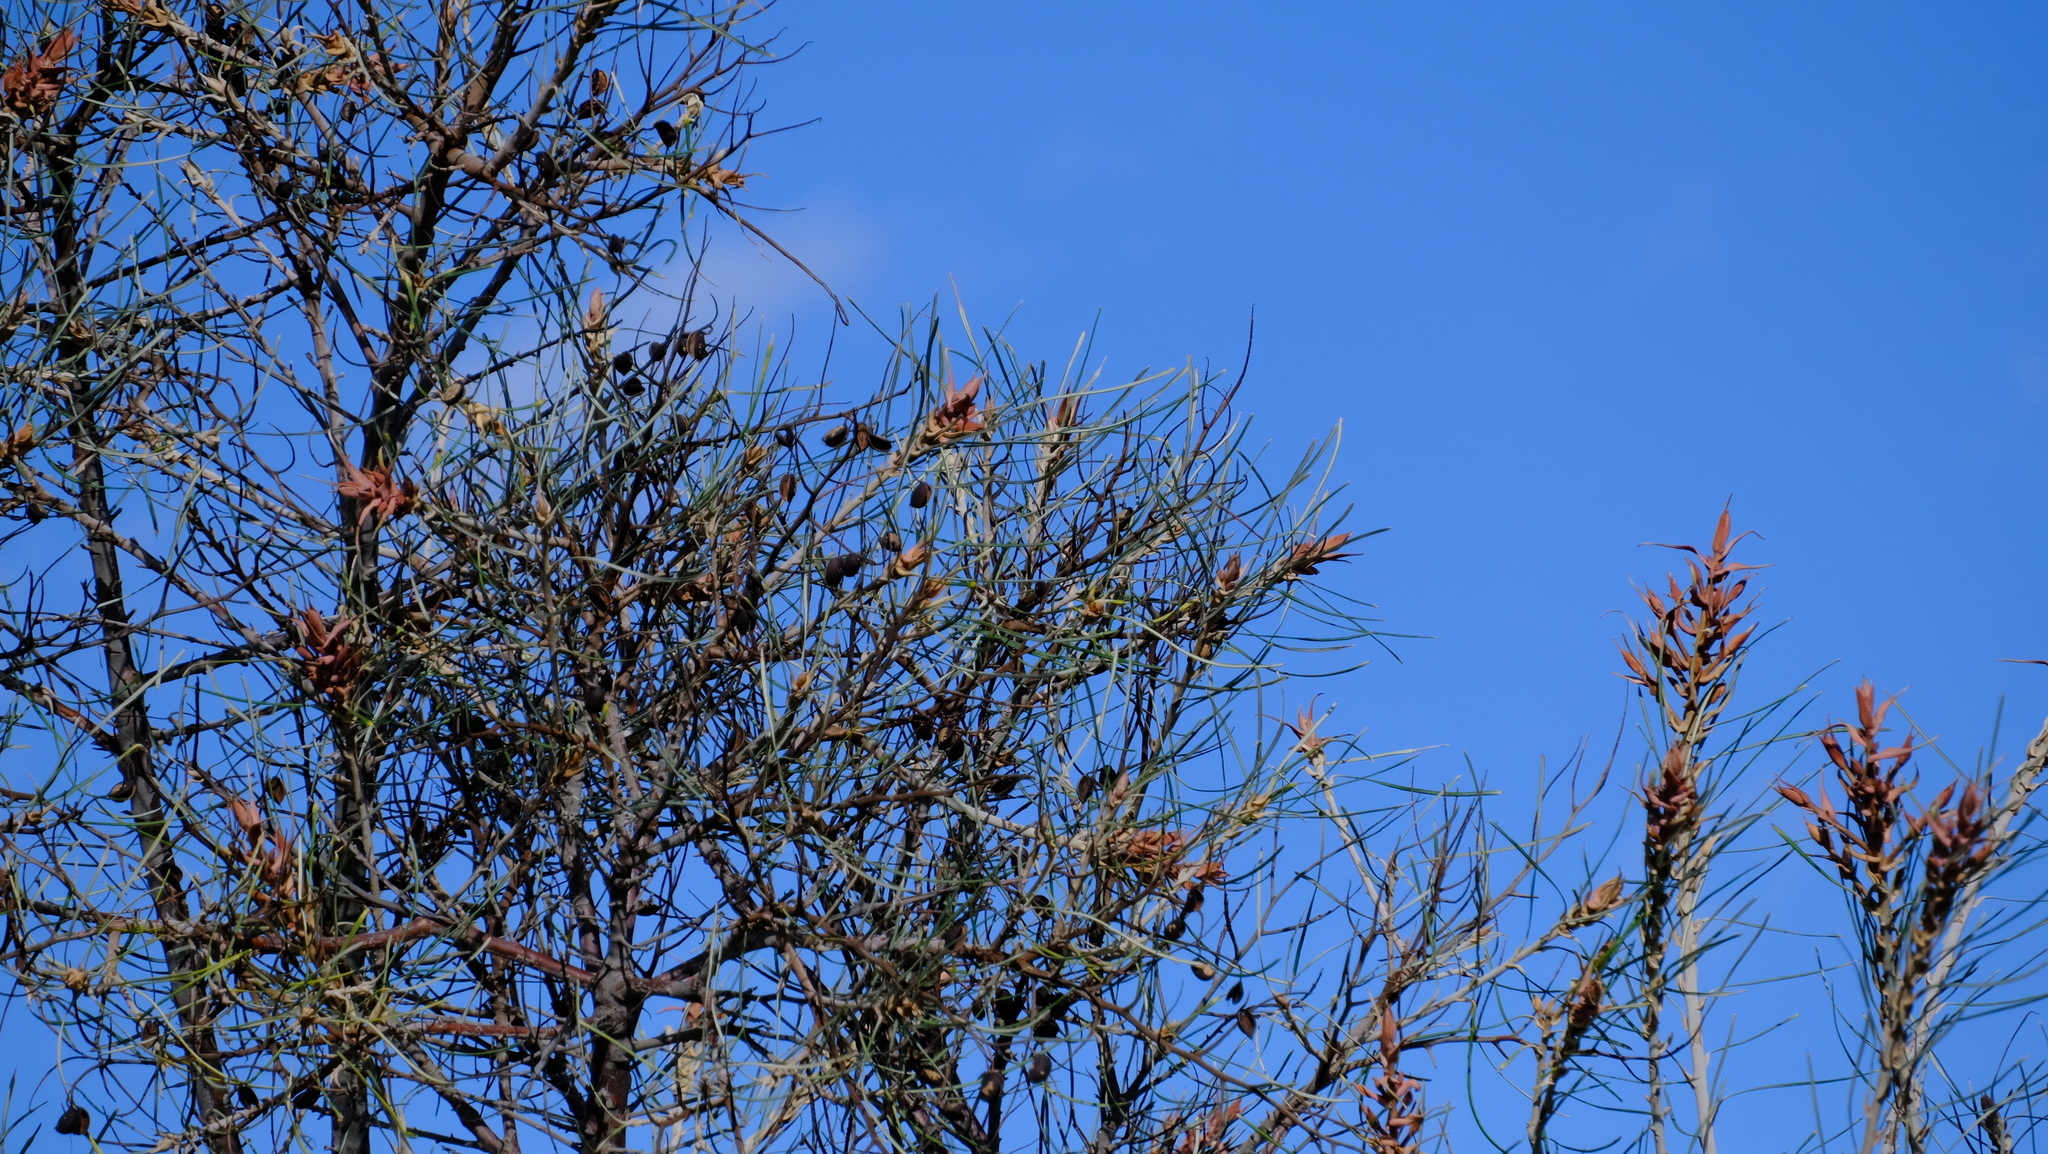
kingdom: Plantae
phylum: Tracheophyta
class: Magnoliopsida
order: Proteales
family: Proteaceae
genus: Grevillea
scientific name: Grevillea petrophiloides
